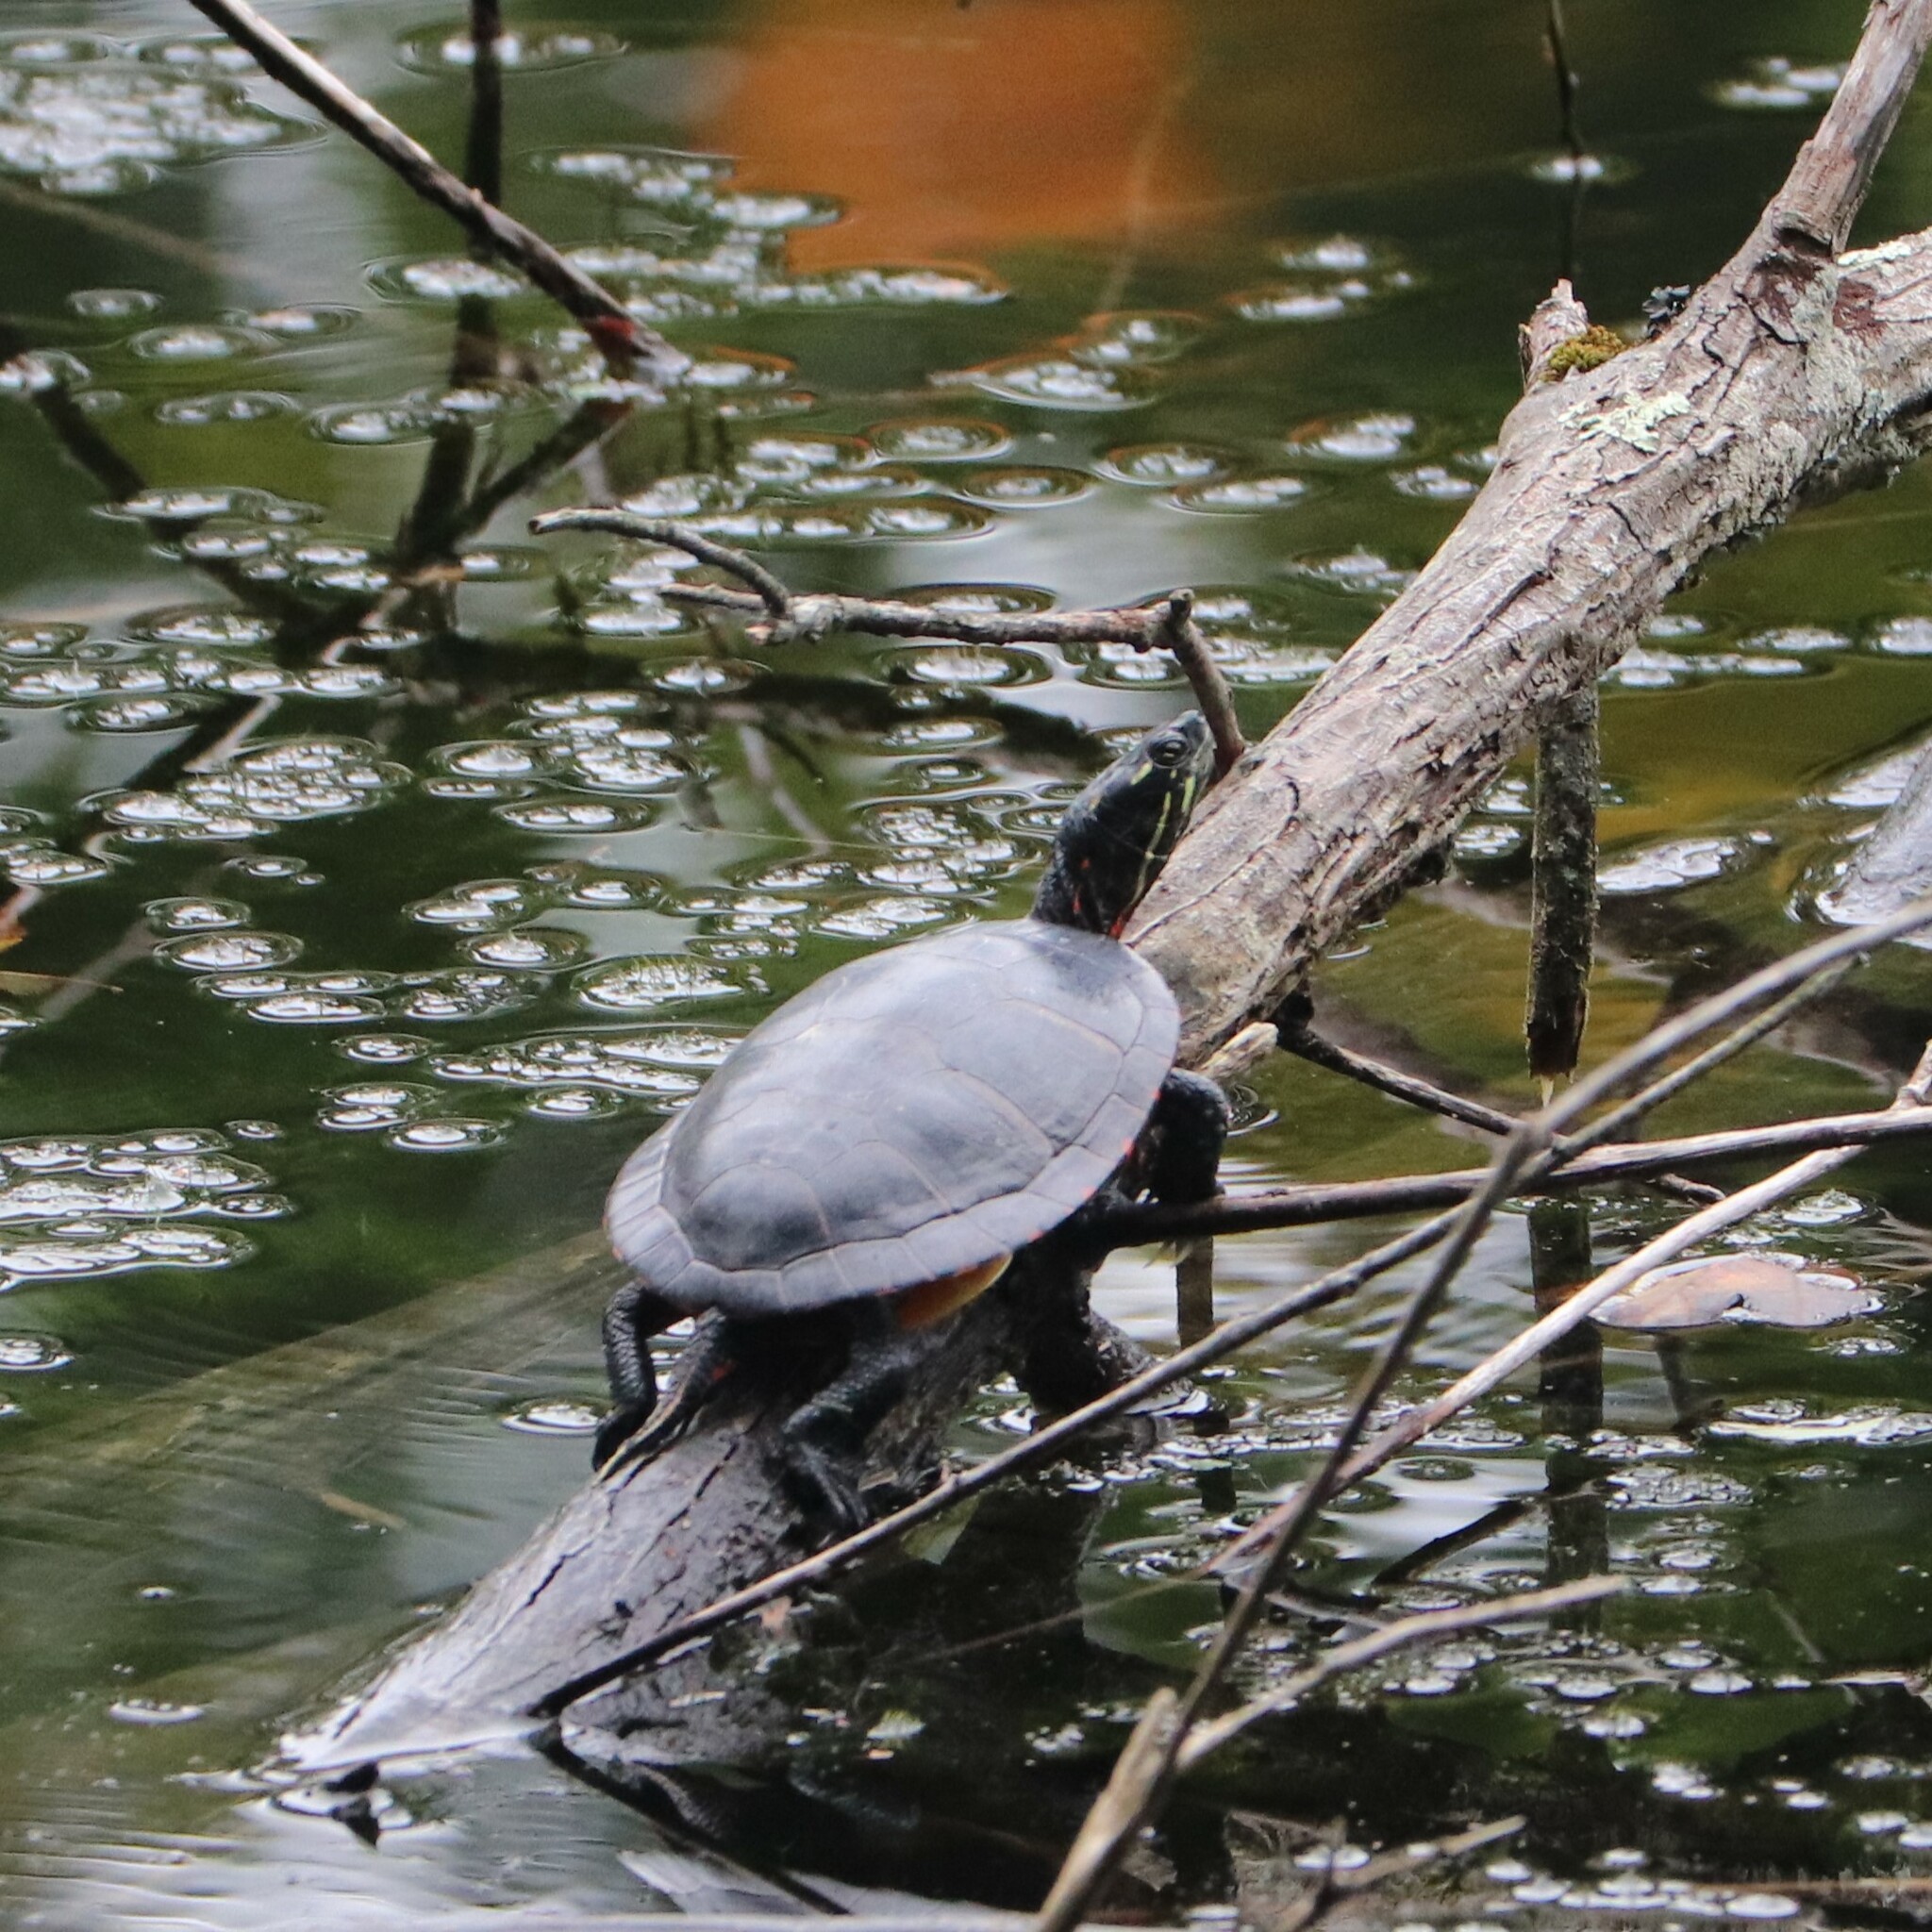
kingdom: Animalia
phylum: Chordata
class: Testudines
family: Emydidae
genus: Chrysemys
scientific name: Chrysemys picta
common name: Painted turtle
